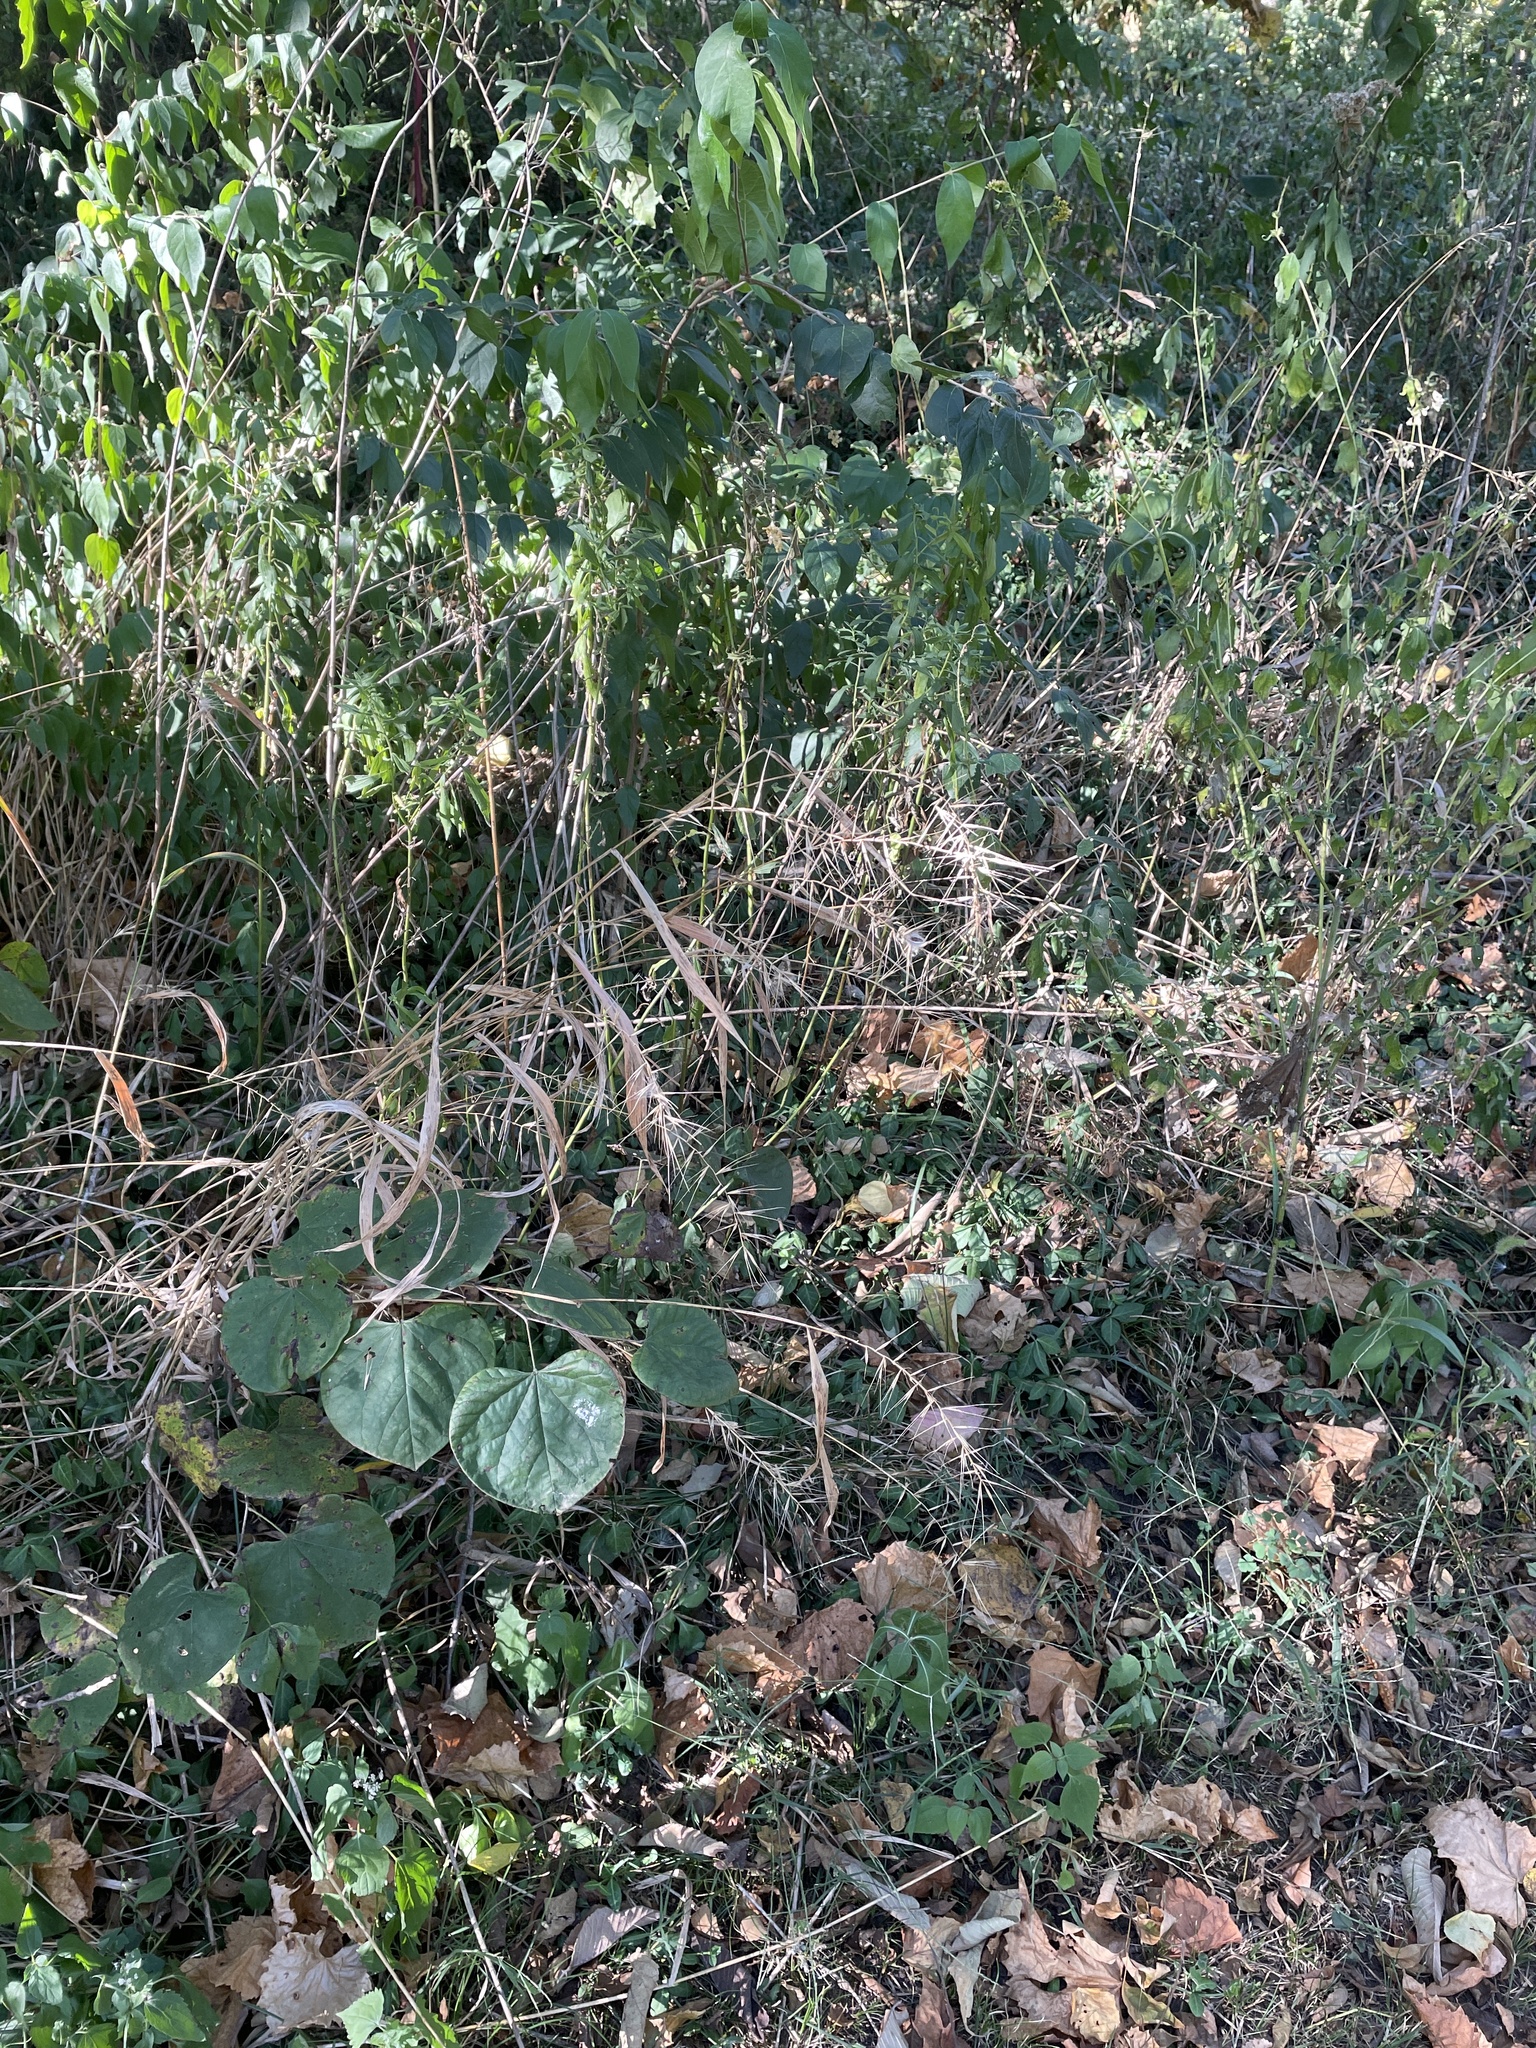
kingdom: Plantae
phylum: Tracheophyta
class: Liliopsida
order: Poales
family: Poaceae
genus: Elymus
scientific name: Elymus hystrix
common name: Bottlebrush grass
